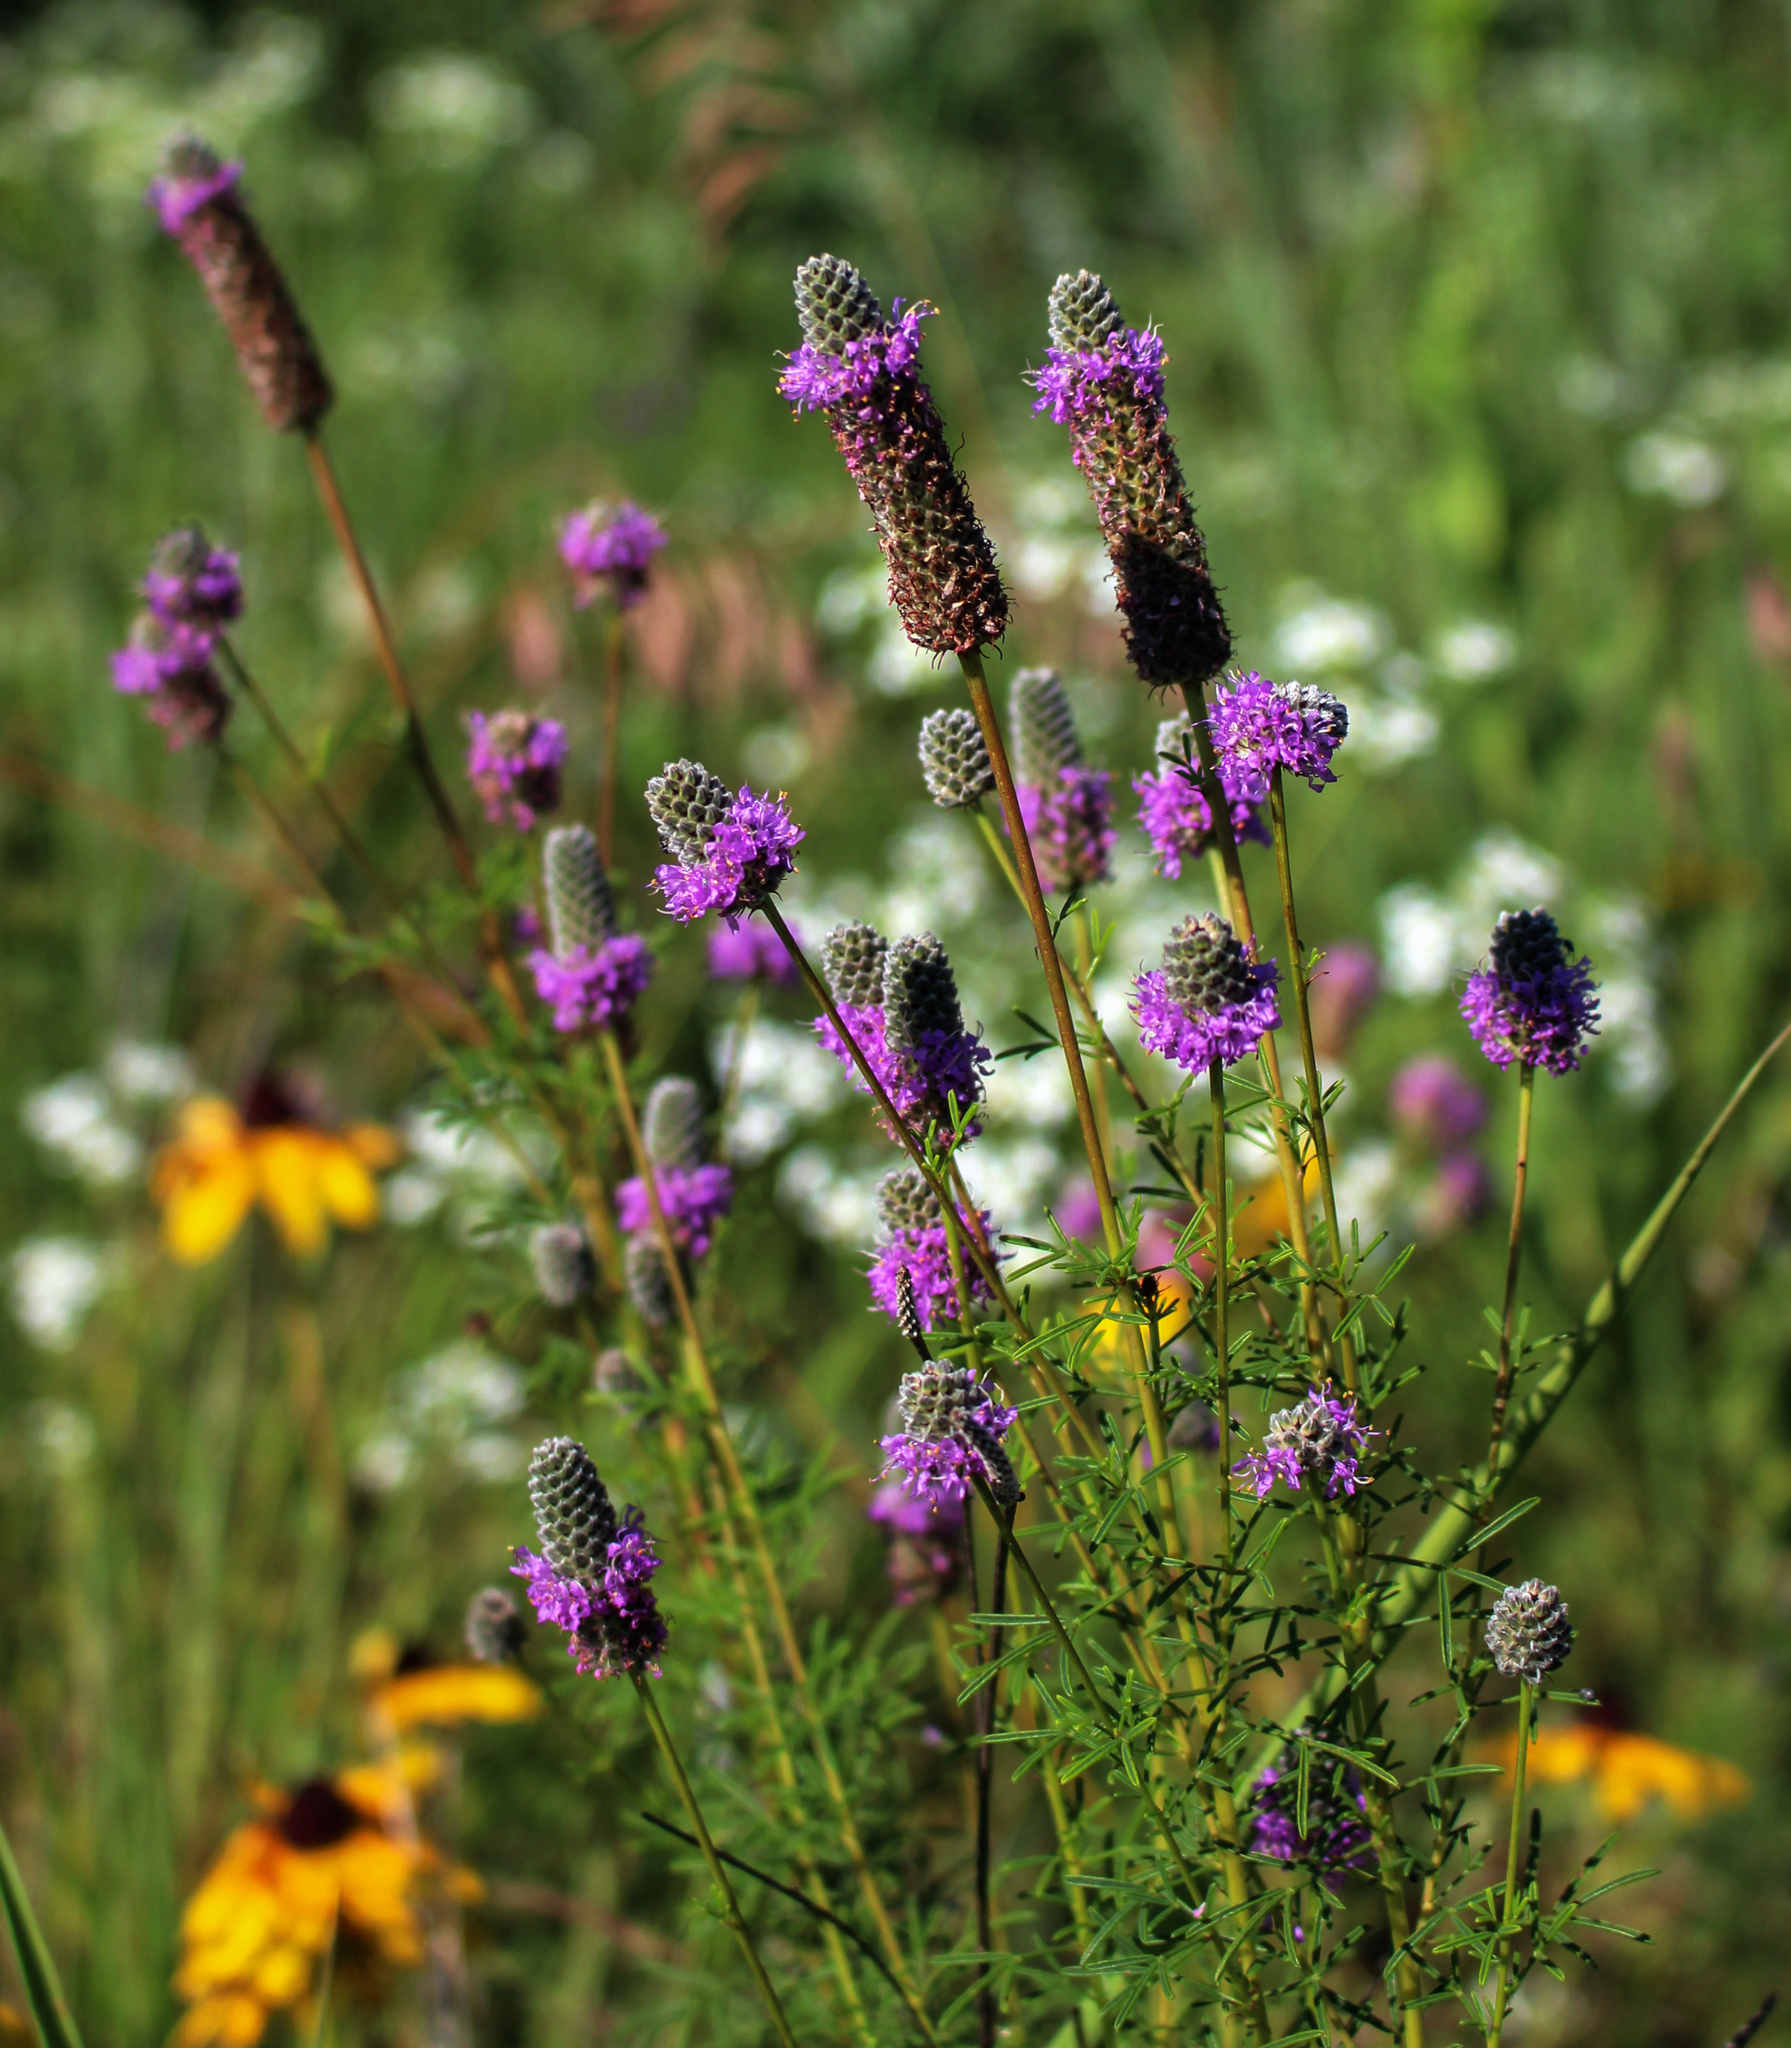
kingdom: Plantae
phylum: Tracheophyta
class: Magnoliopsida
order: Fabales
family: Fabaceae
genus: Dalea
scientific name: Dalea purpurea
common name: Purple prairie-clover
